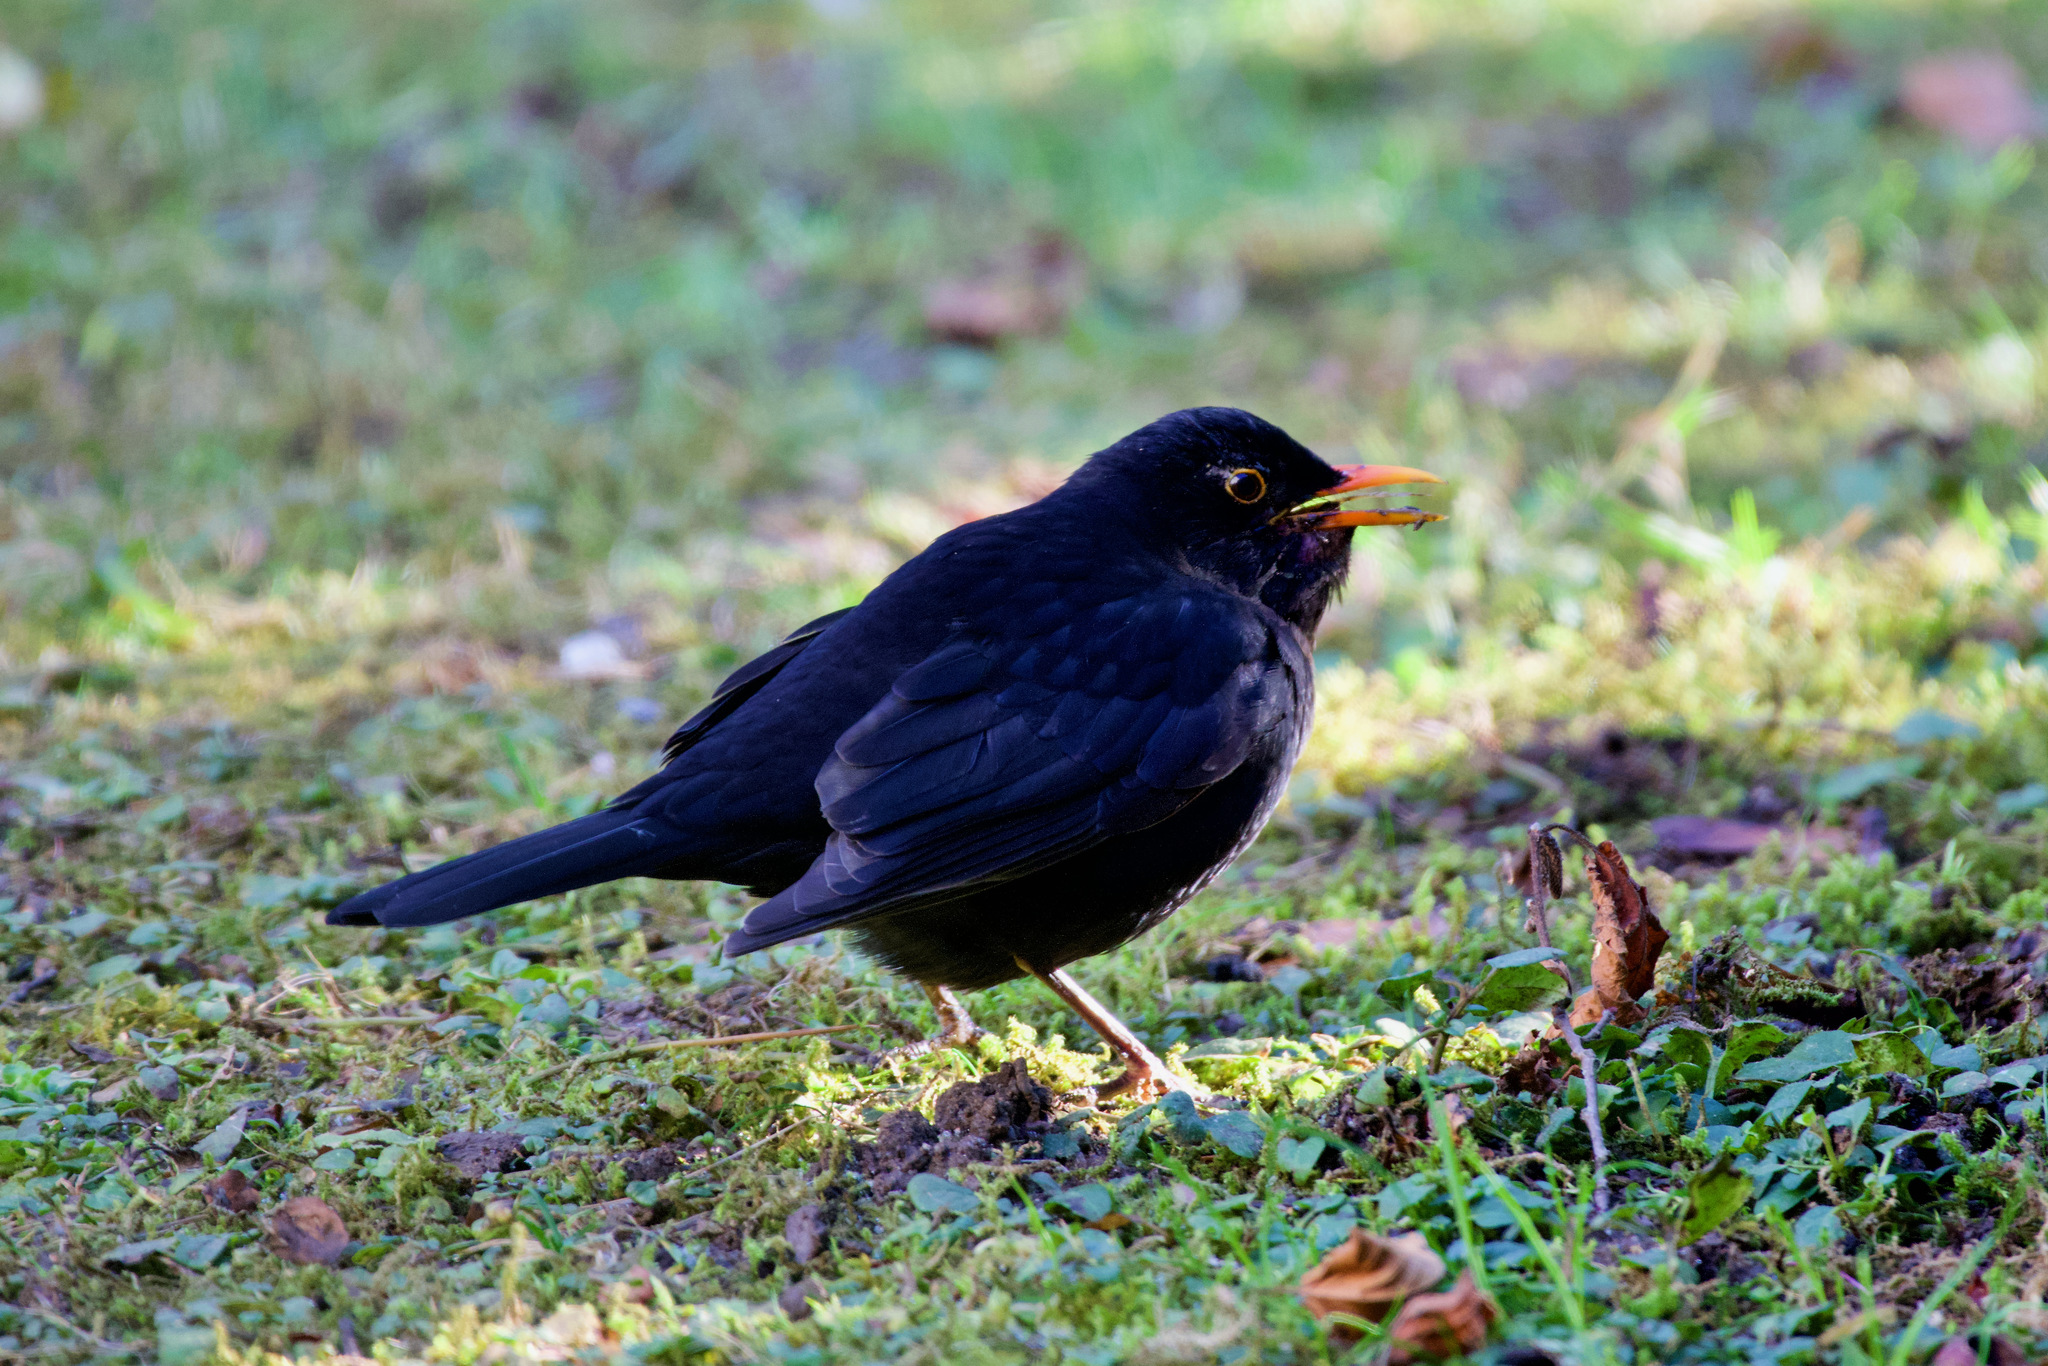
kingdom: Animalia
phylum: Chordata
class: Aves
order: Passeriformes
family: Turdidae
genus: Turdus
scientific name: Turdus merula
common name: Common blackbird
